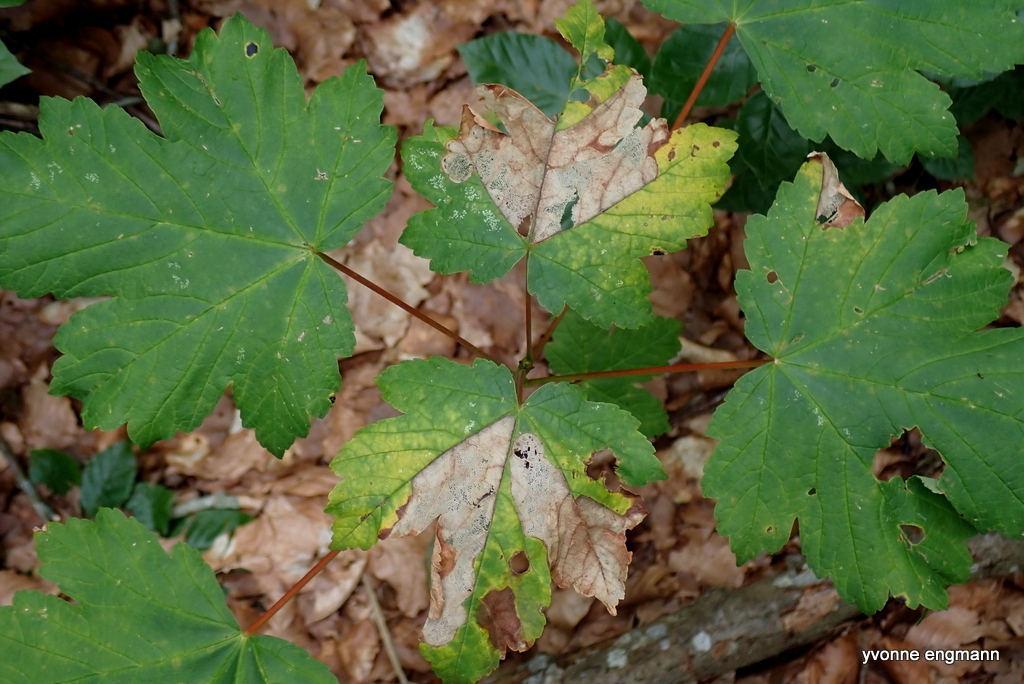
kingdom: Plantae
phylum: Tracheophyta
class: Magnoliopsida
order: Sapindales
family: Sapindaceae
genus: Acer
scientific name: Acer pseudoplatanus
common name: Sycamore
